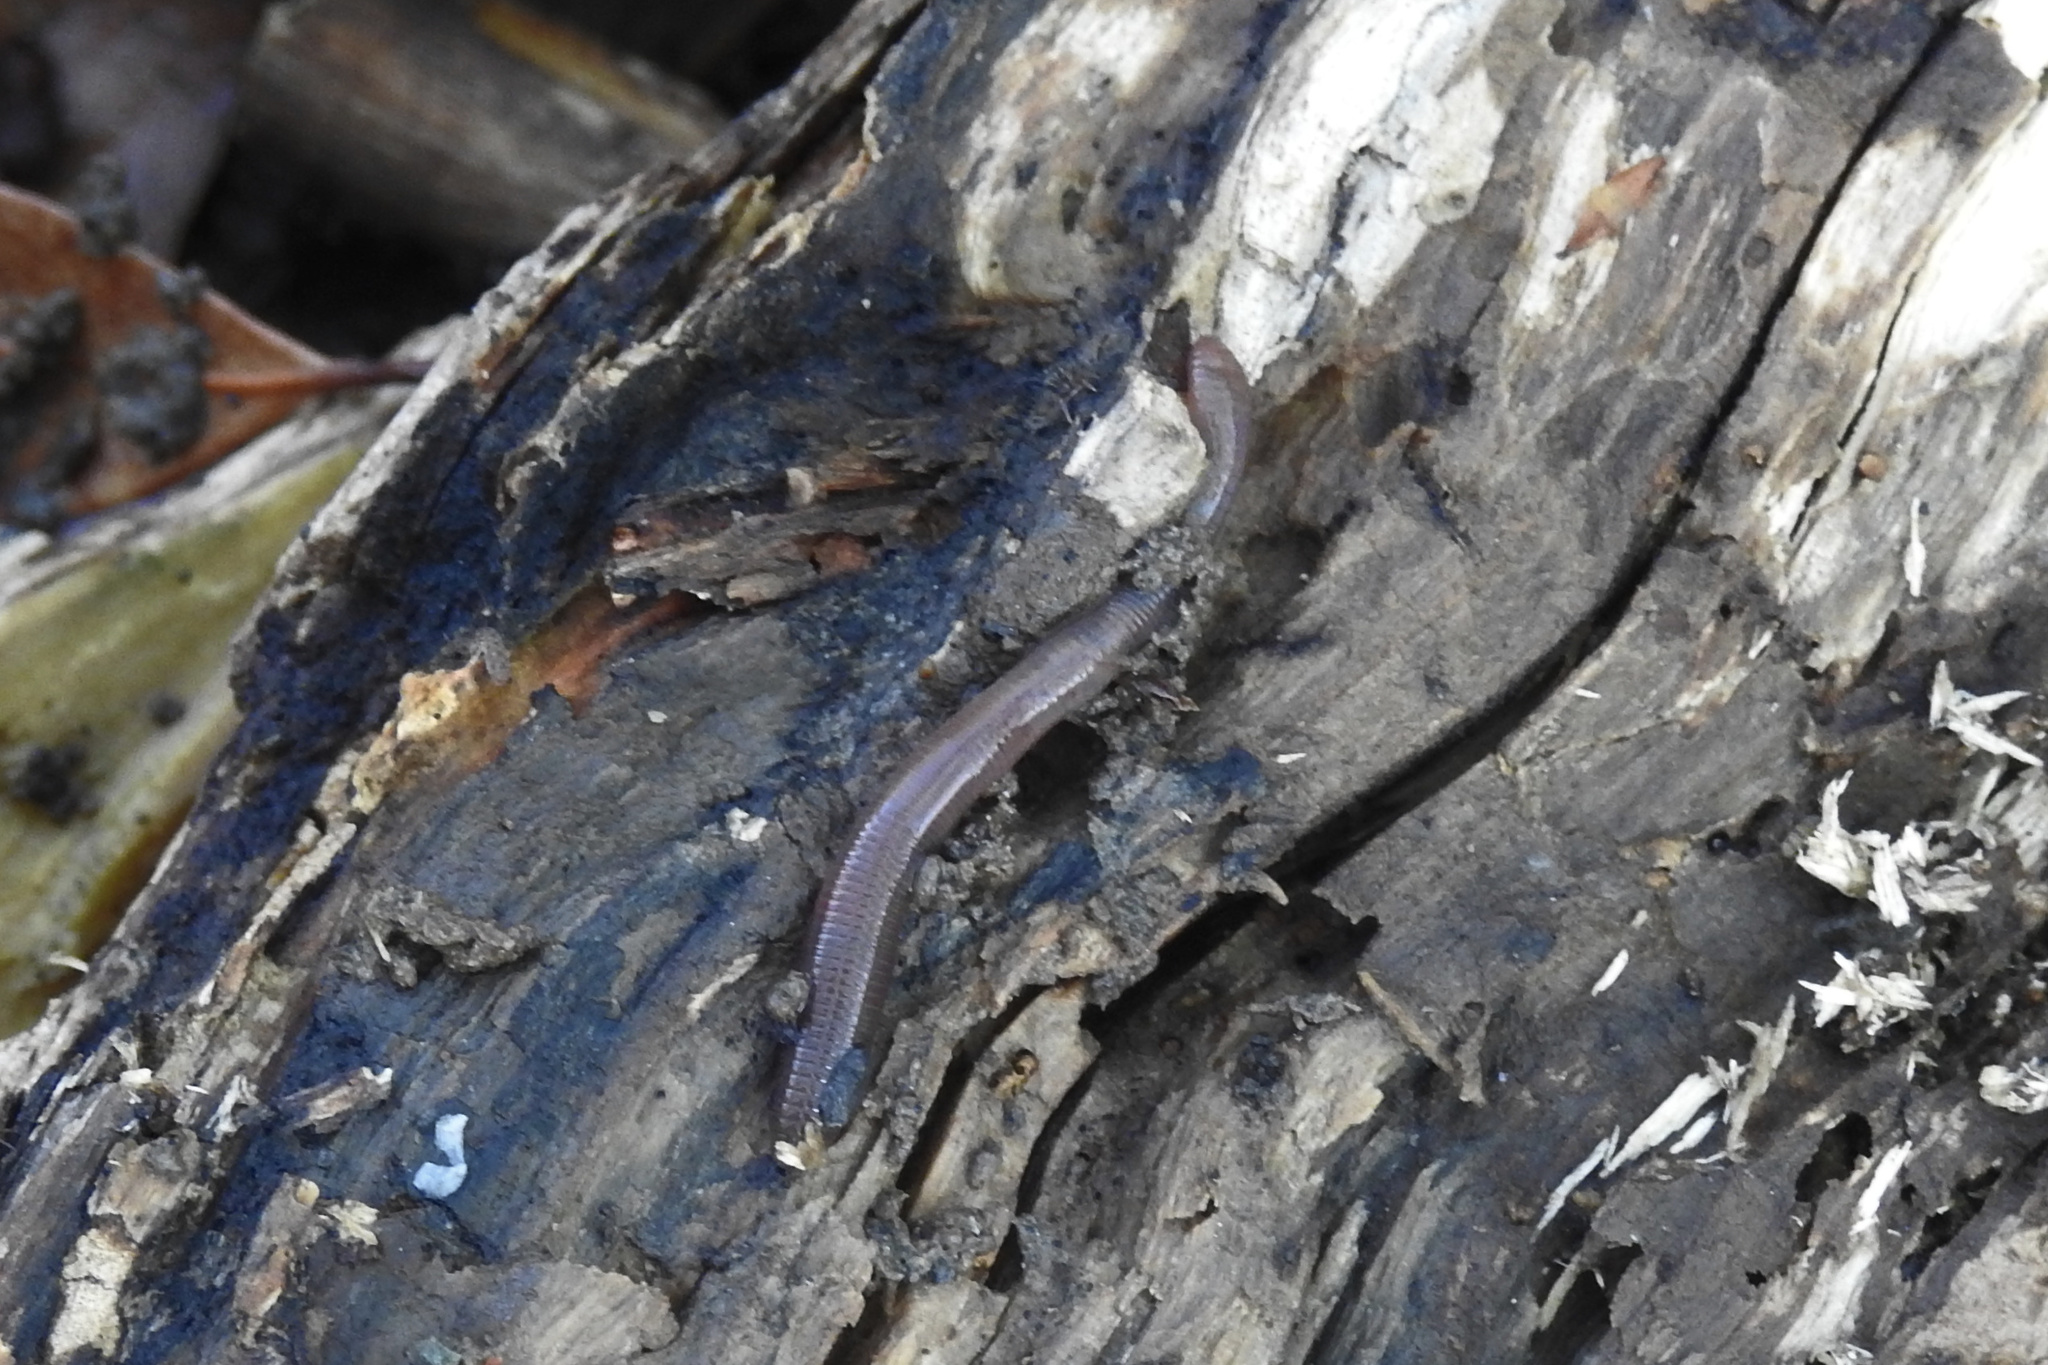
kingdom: Animalia
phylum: Annelida
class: Clitellata
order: Crassiclitellata
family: Lumbricidae
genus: Lumbricus
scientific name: Lumbricus terrestris
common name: Common earthworm
